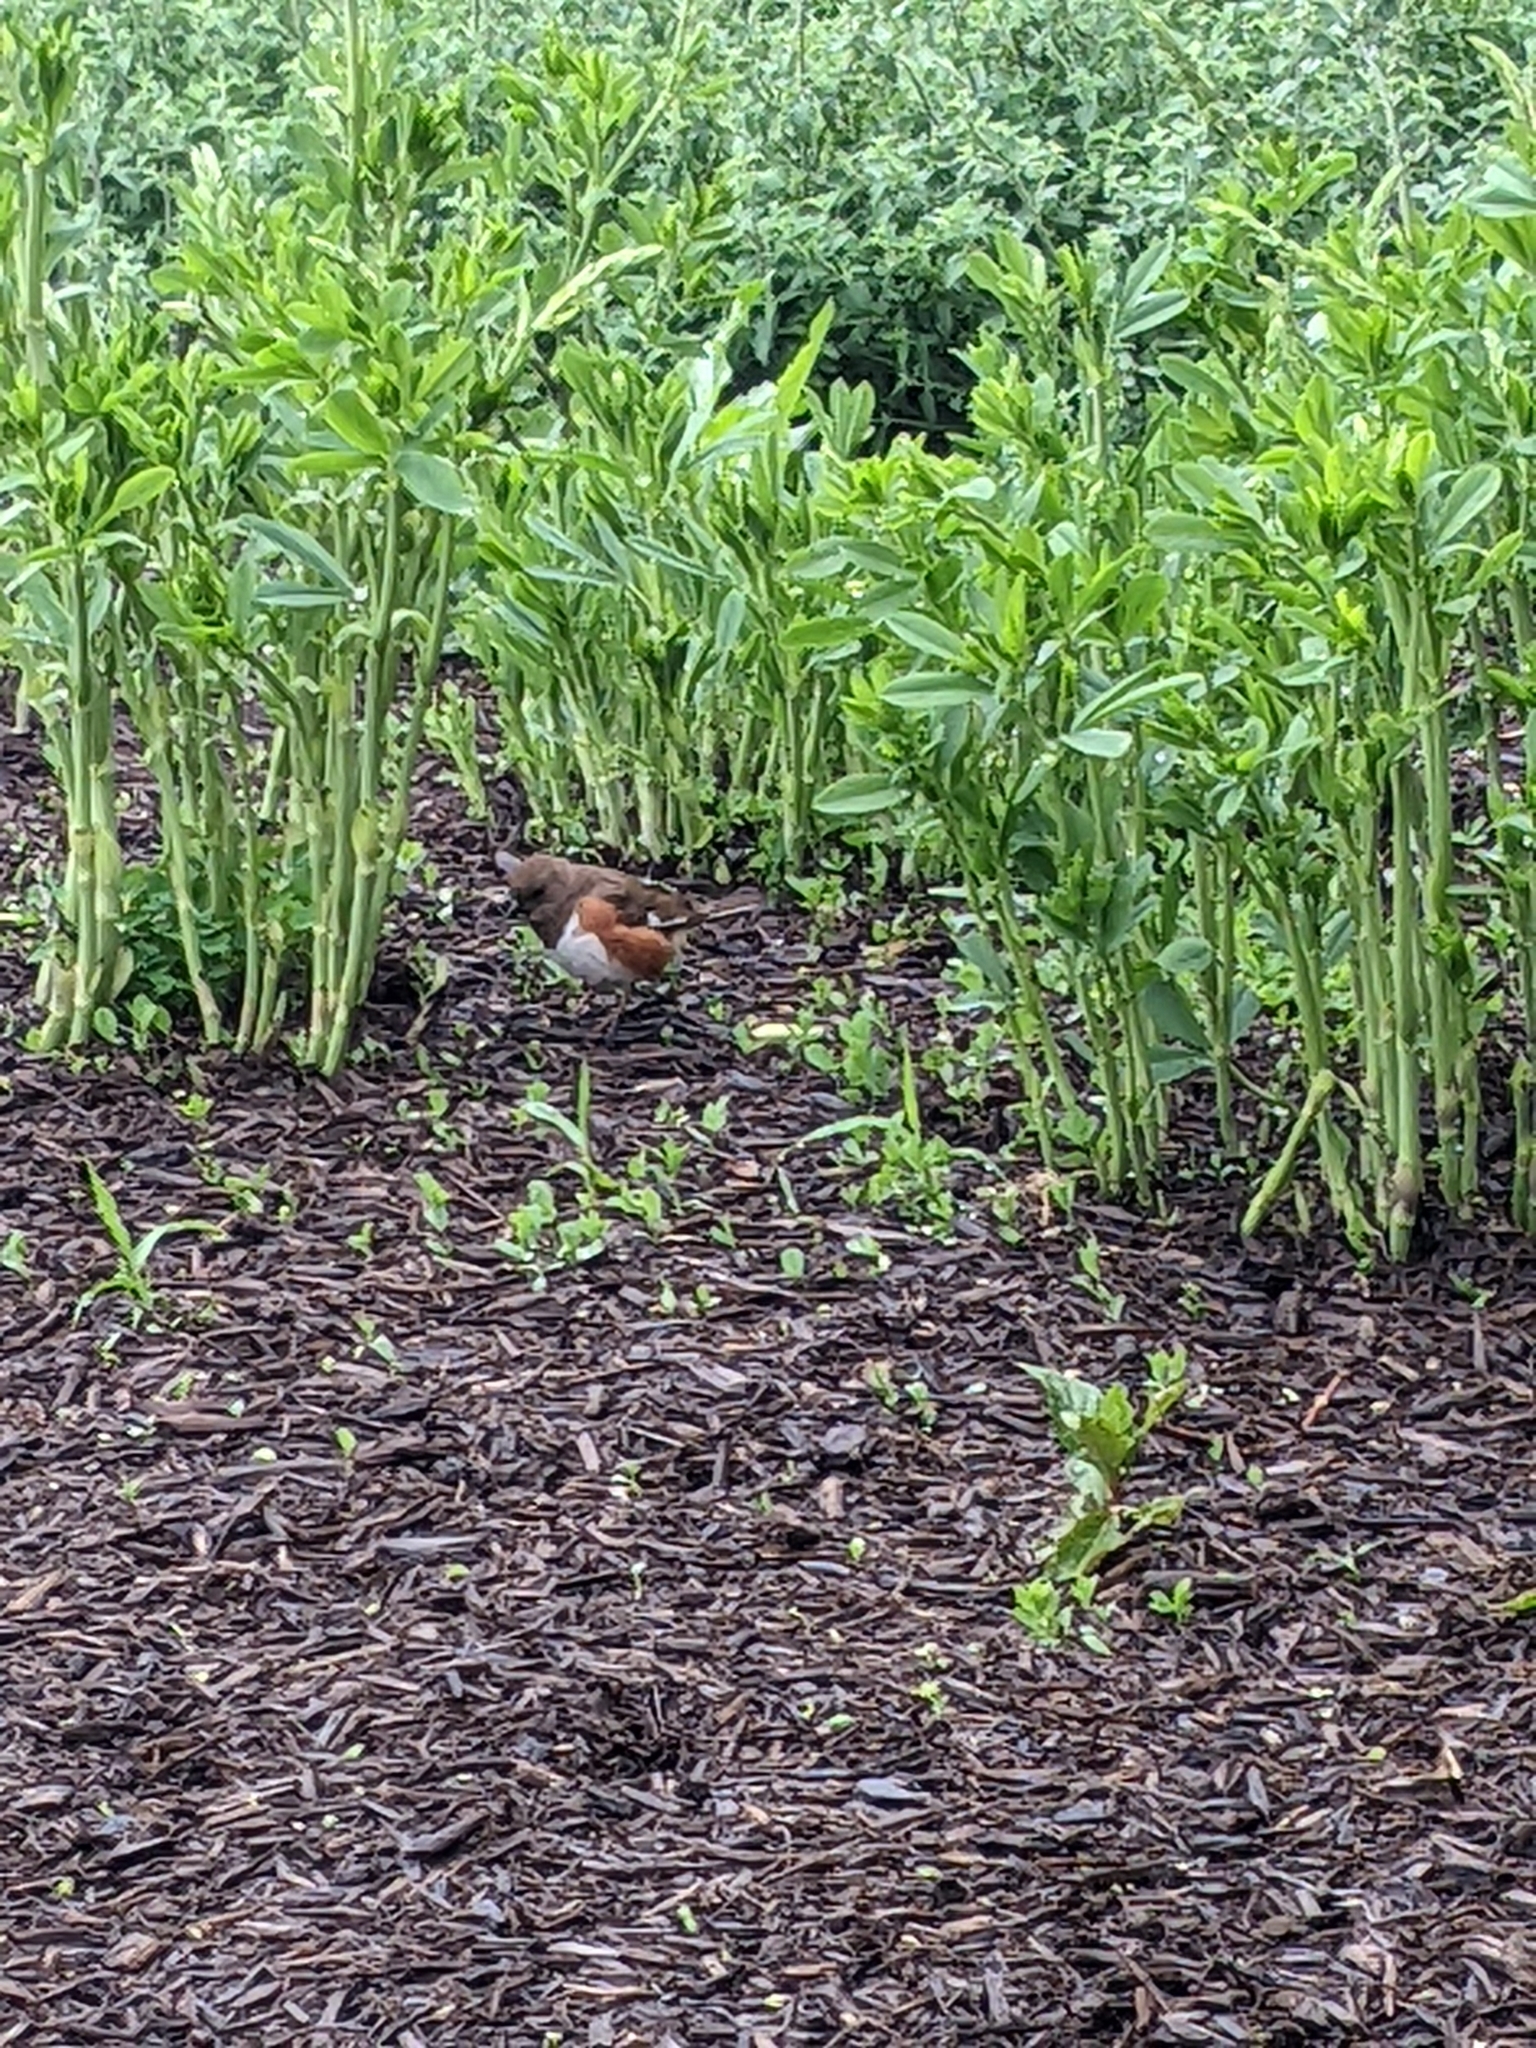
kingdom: Animalia
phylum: Chordata
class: Aves
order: Passeriformes
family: Passerellidae
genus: Pipilo
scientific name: Pipilo erythrophthalmus
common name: Eastern towhee
